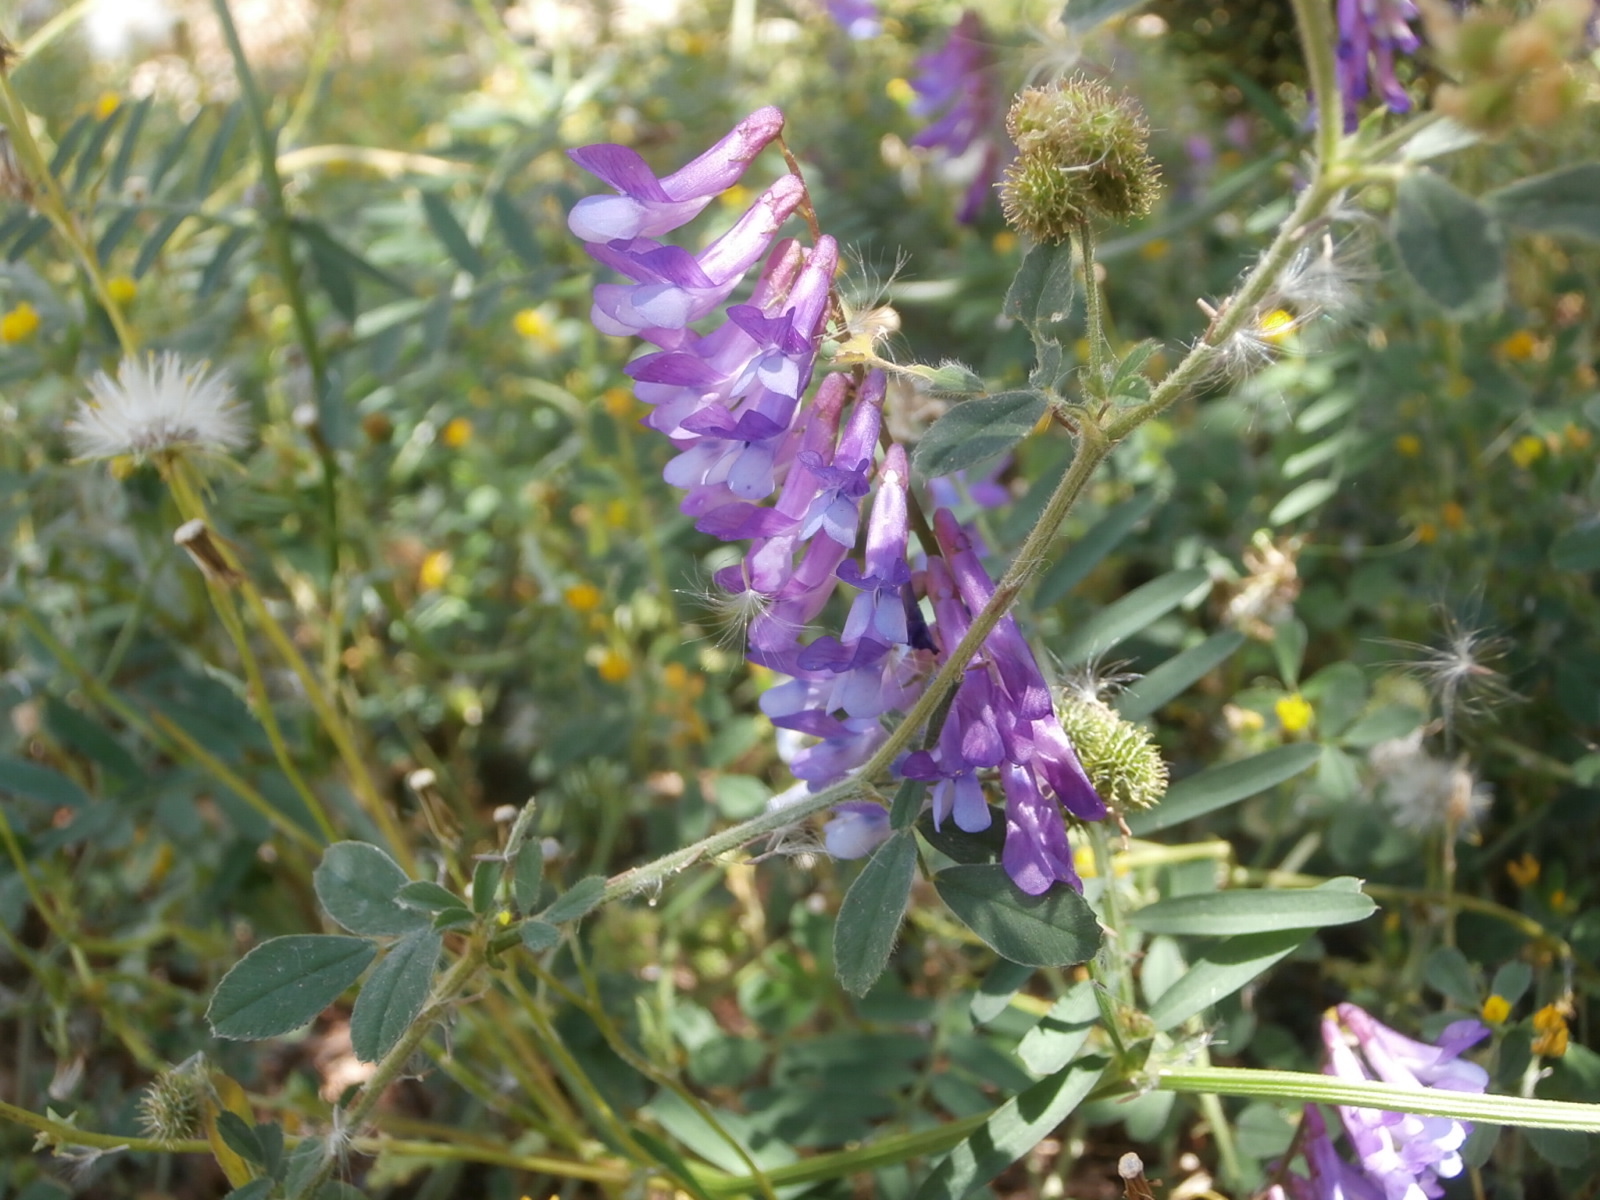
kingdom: Plantae
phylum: Tracheophyta
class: Magnoliopsida
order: Fabales
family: Fabaceae
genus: Vicia
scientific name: Vicia villosa
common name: Fodder vetch
